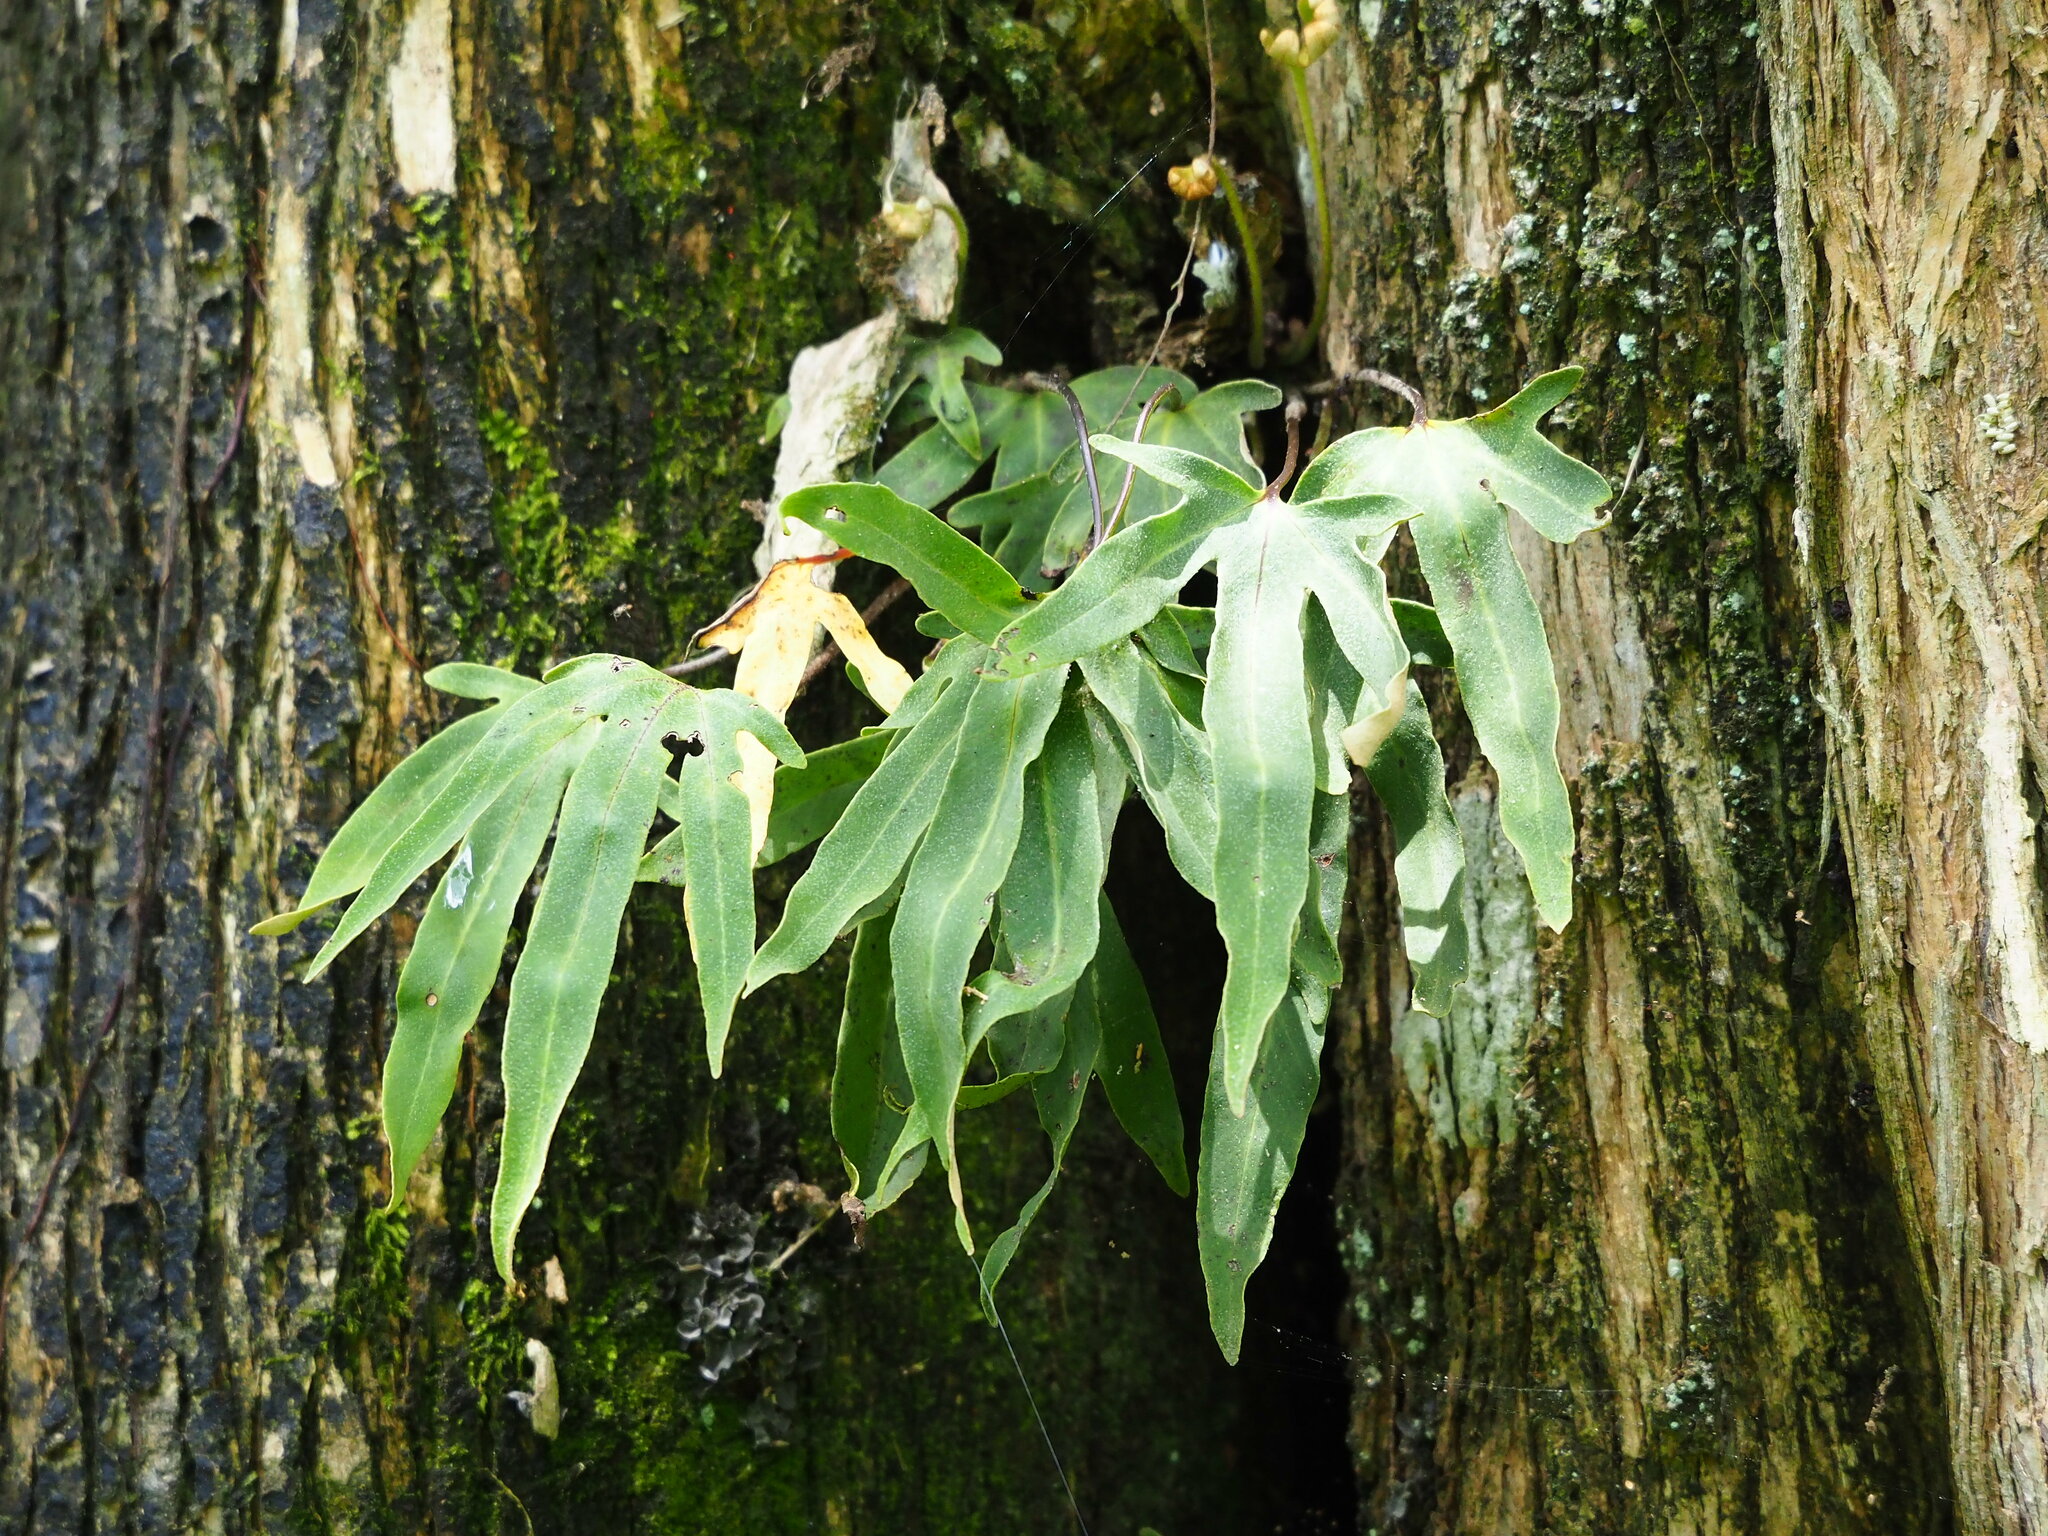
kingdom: Plantae
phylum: Tracheophyta
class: Polypodiopsida
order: Polypodiales
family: Polypodiaceae
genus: Pyrrosia
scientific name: Pyrrosia polydactyla
